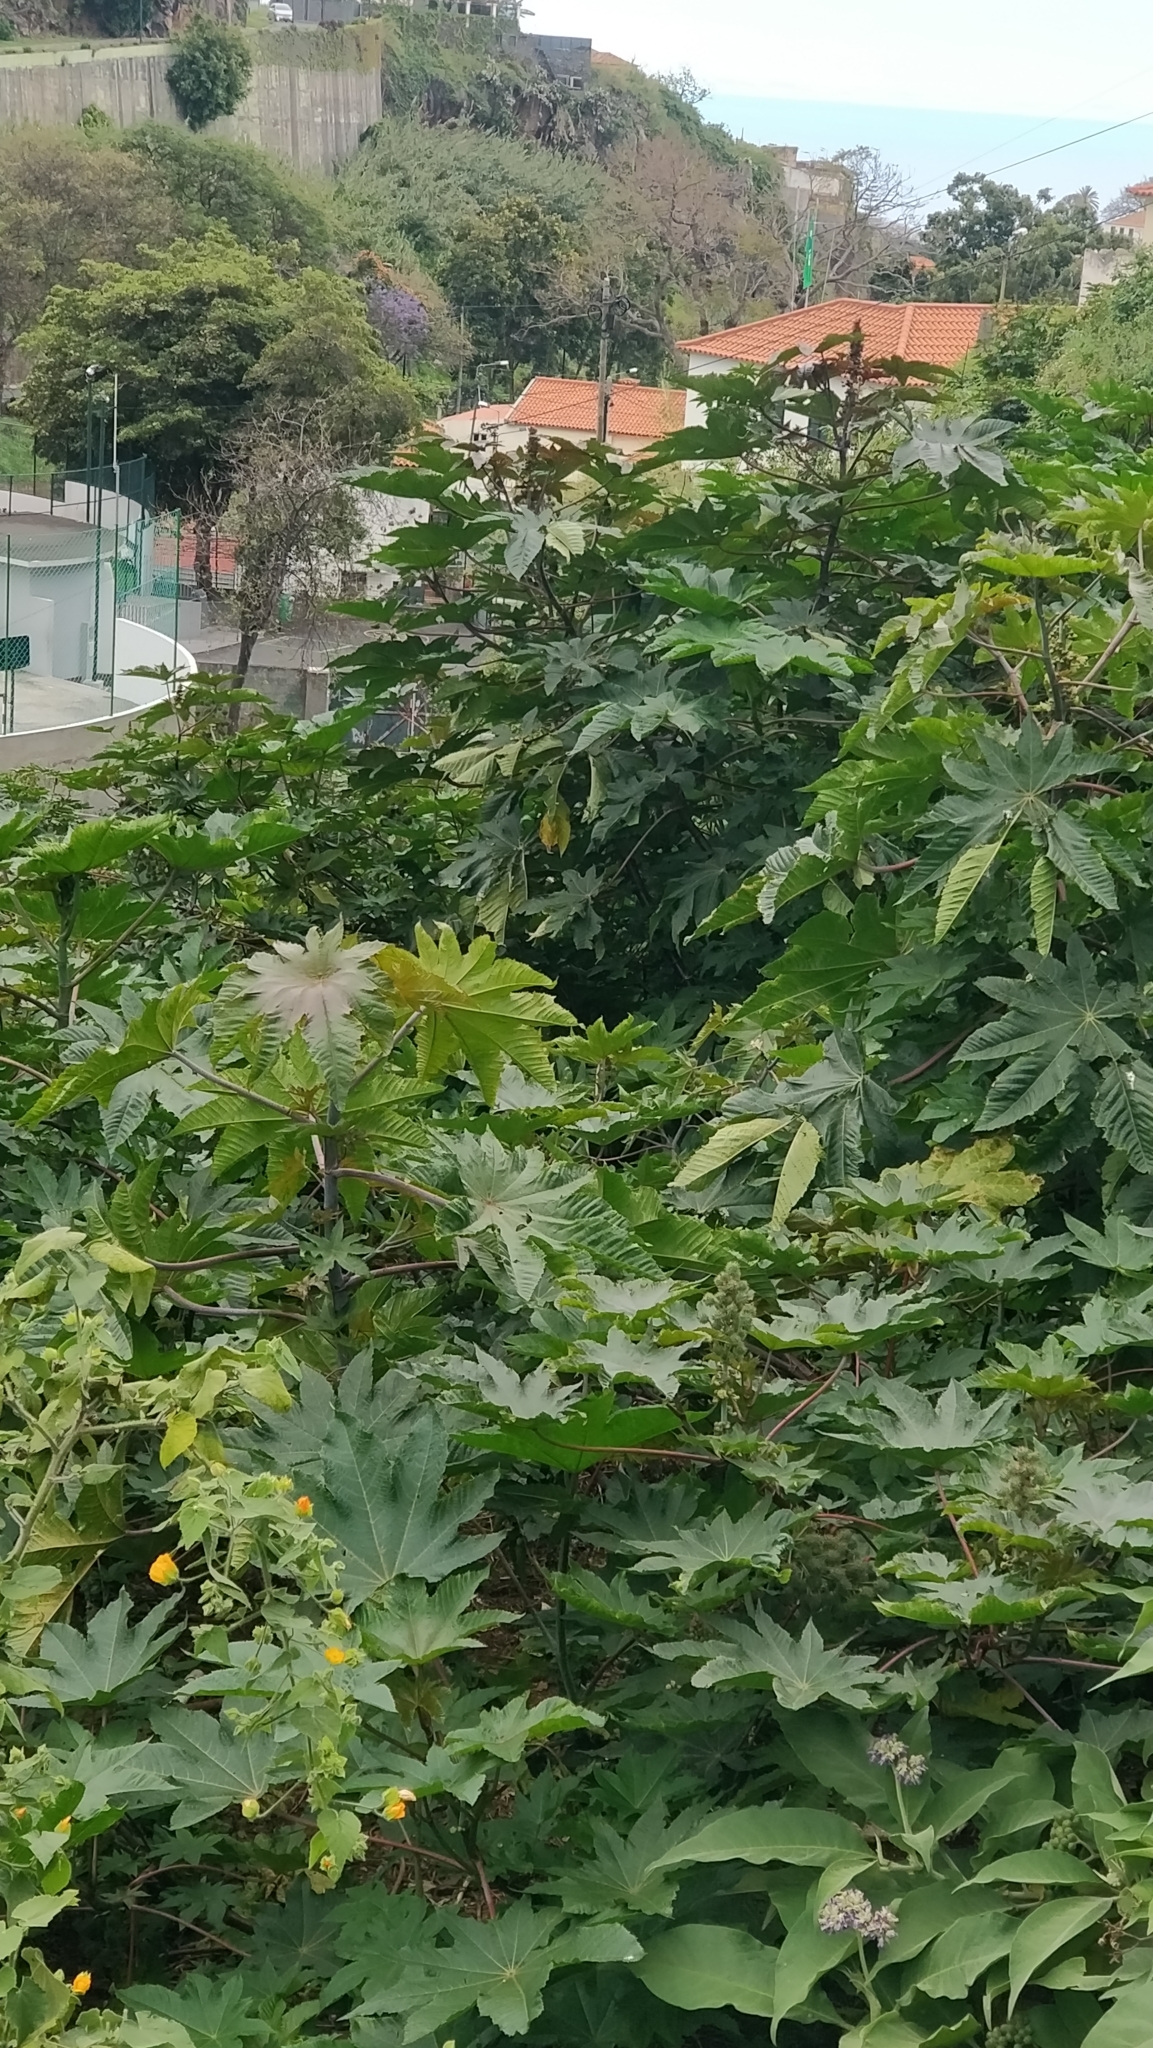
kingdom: Plantae
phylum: Tracheophyta
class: Magnoliopsida
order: Malpighiales
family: Euphorbiaceae
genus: Ricinus
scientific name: Ricinus communis
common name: Castor-oil-plant
